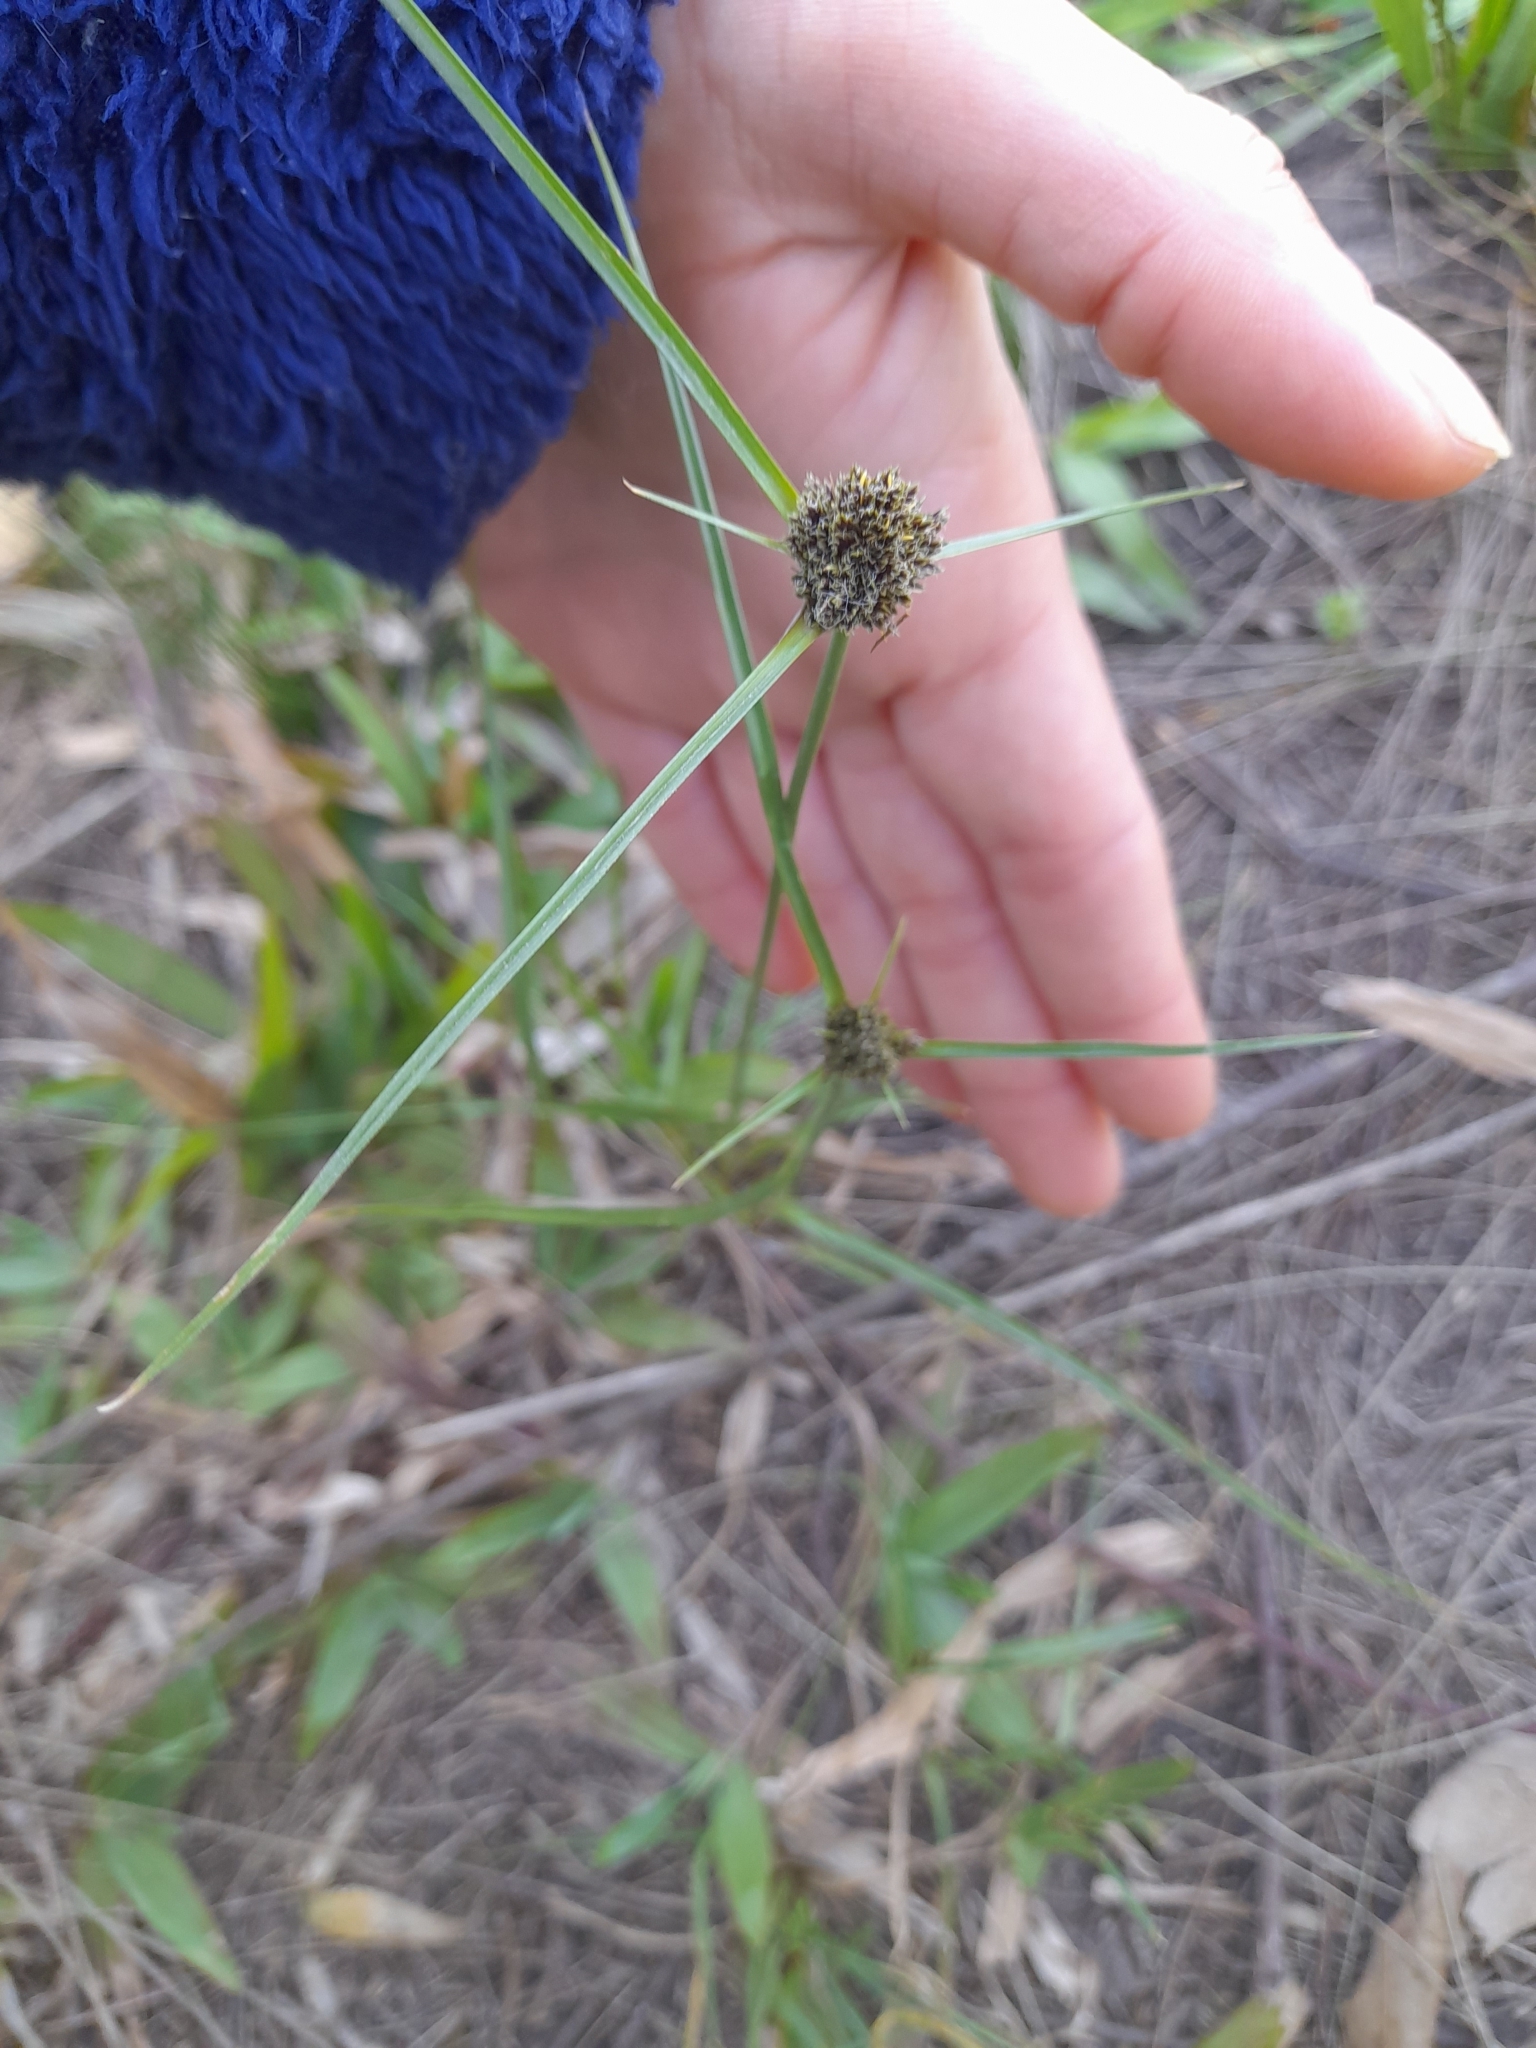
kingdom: Plantae
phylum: Tracheophyta
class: Liliopsida
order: Poales
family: Cyperaceae
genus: Cyperus
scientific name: Cyperus reflexus
